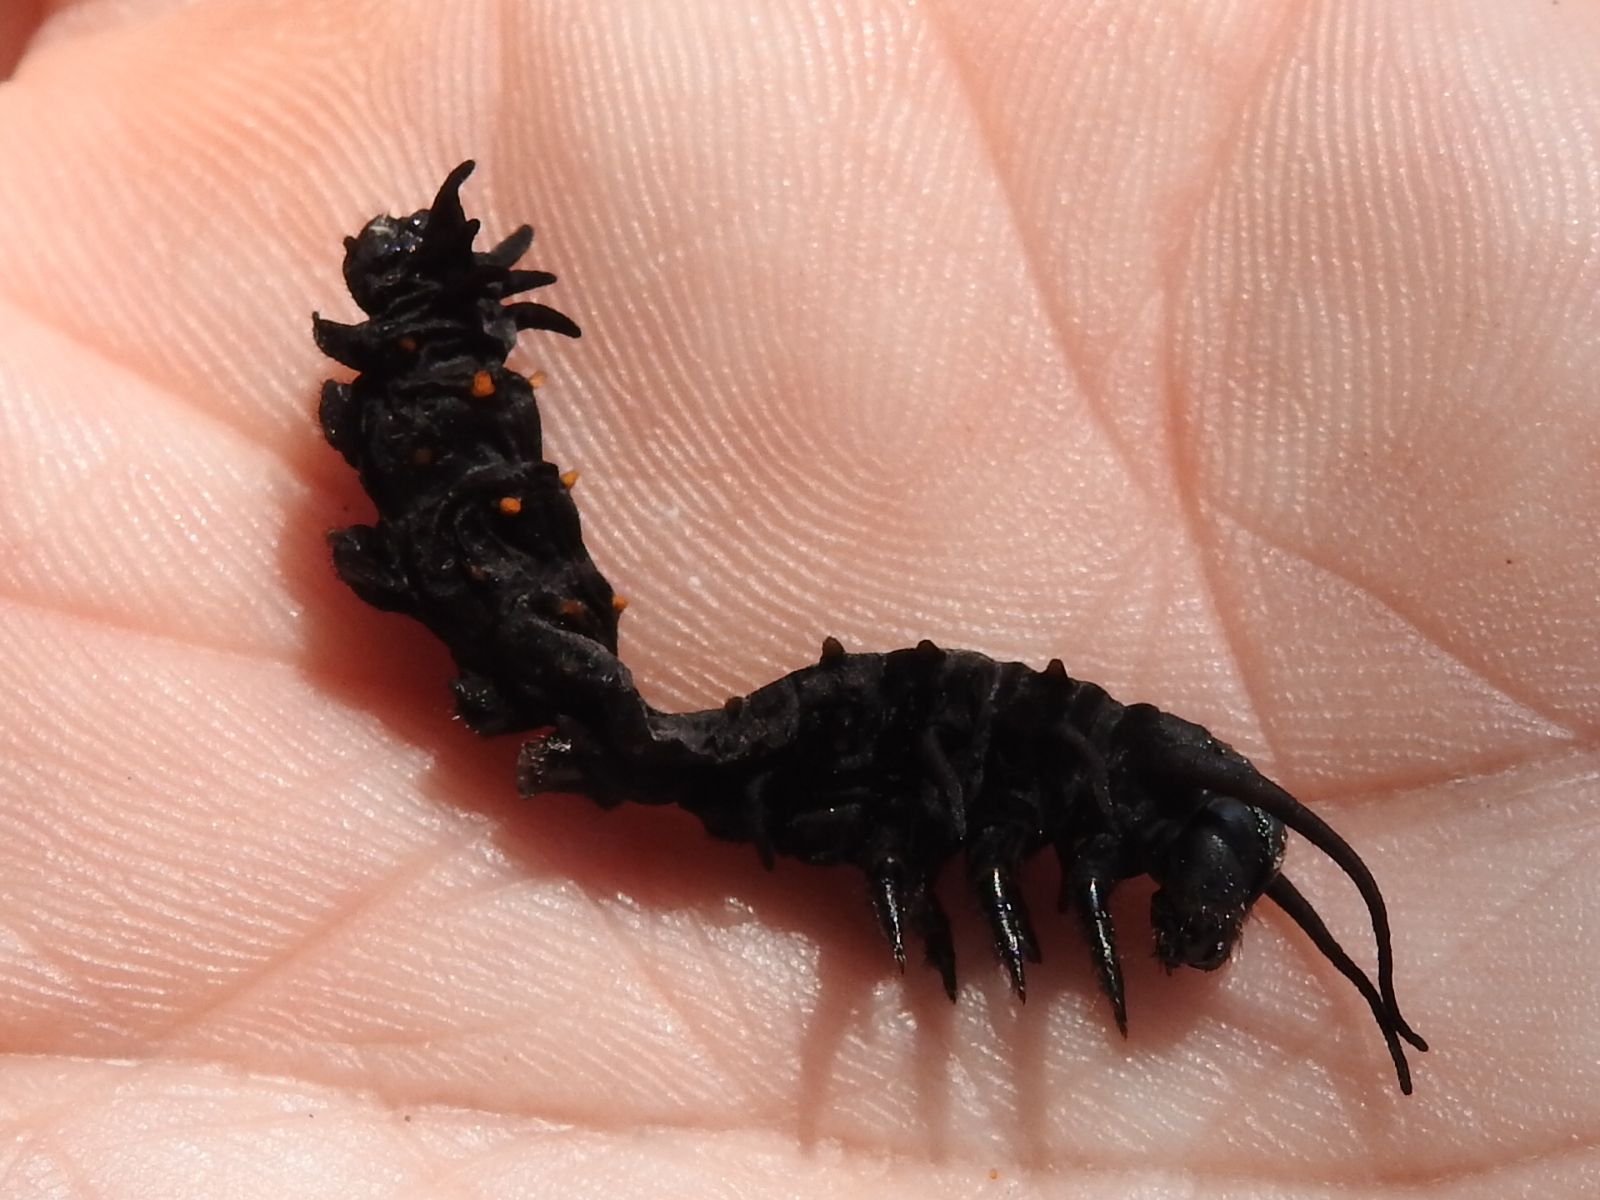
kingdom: Animalia
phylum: Arthropoda
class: Insecta
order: Lepidoptera
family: Papilionidae
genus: Battus
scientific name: Battus philenor
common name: Pipevine swallowtail
